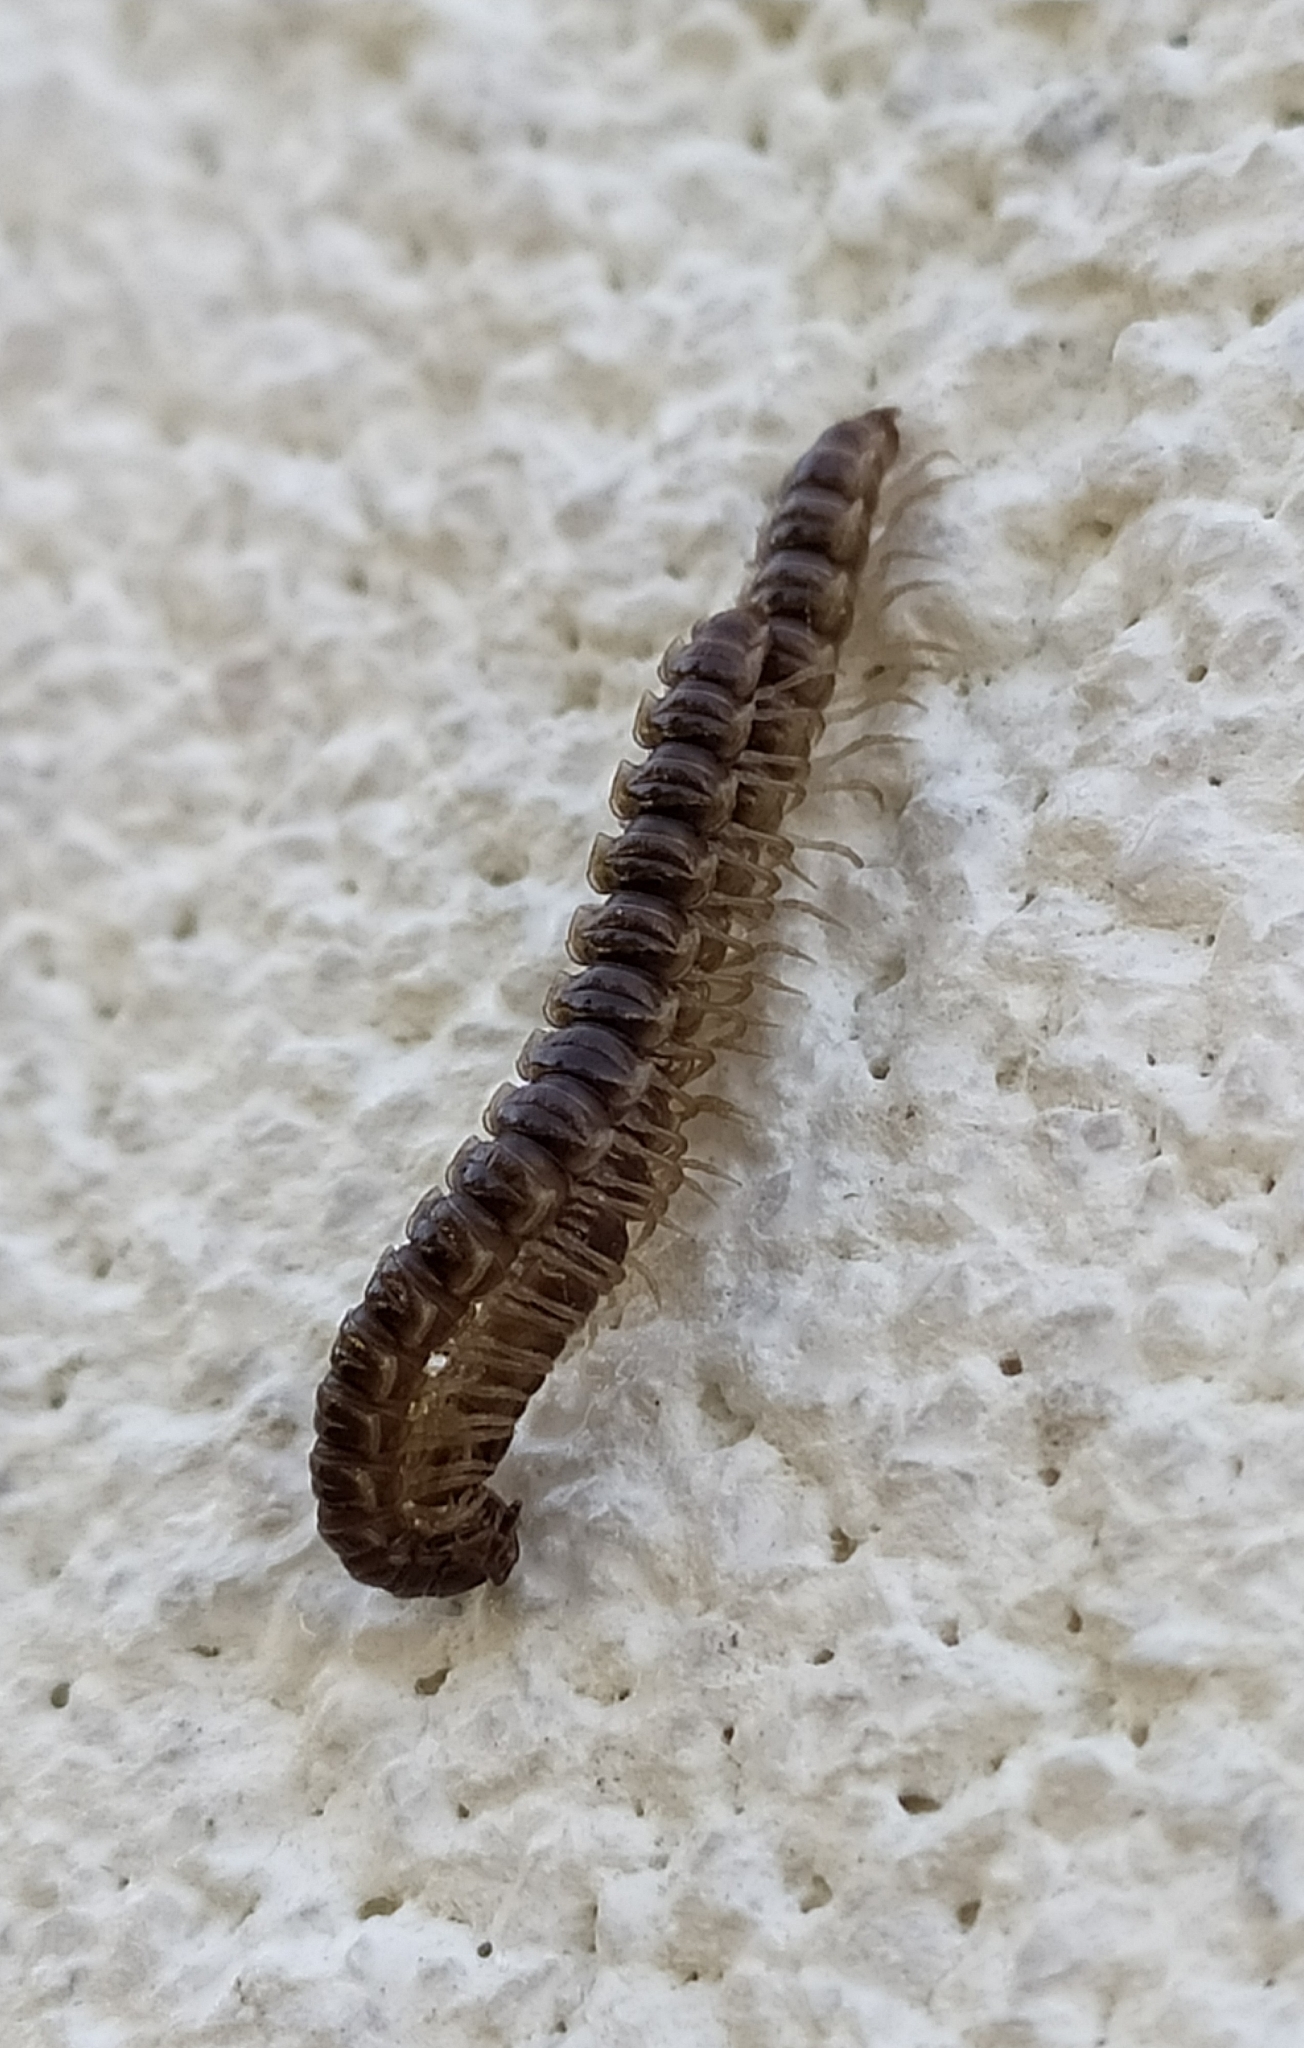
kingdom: Animalia
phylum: Arthropoda
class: Diplopoda
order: Polydesmida
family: Paradoxosomatidae
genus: Oxidus
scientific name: Oxidus gracilis
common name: Greenhouse millipede
